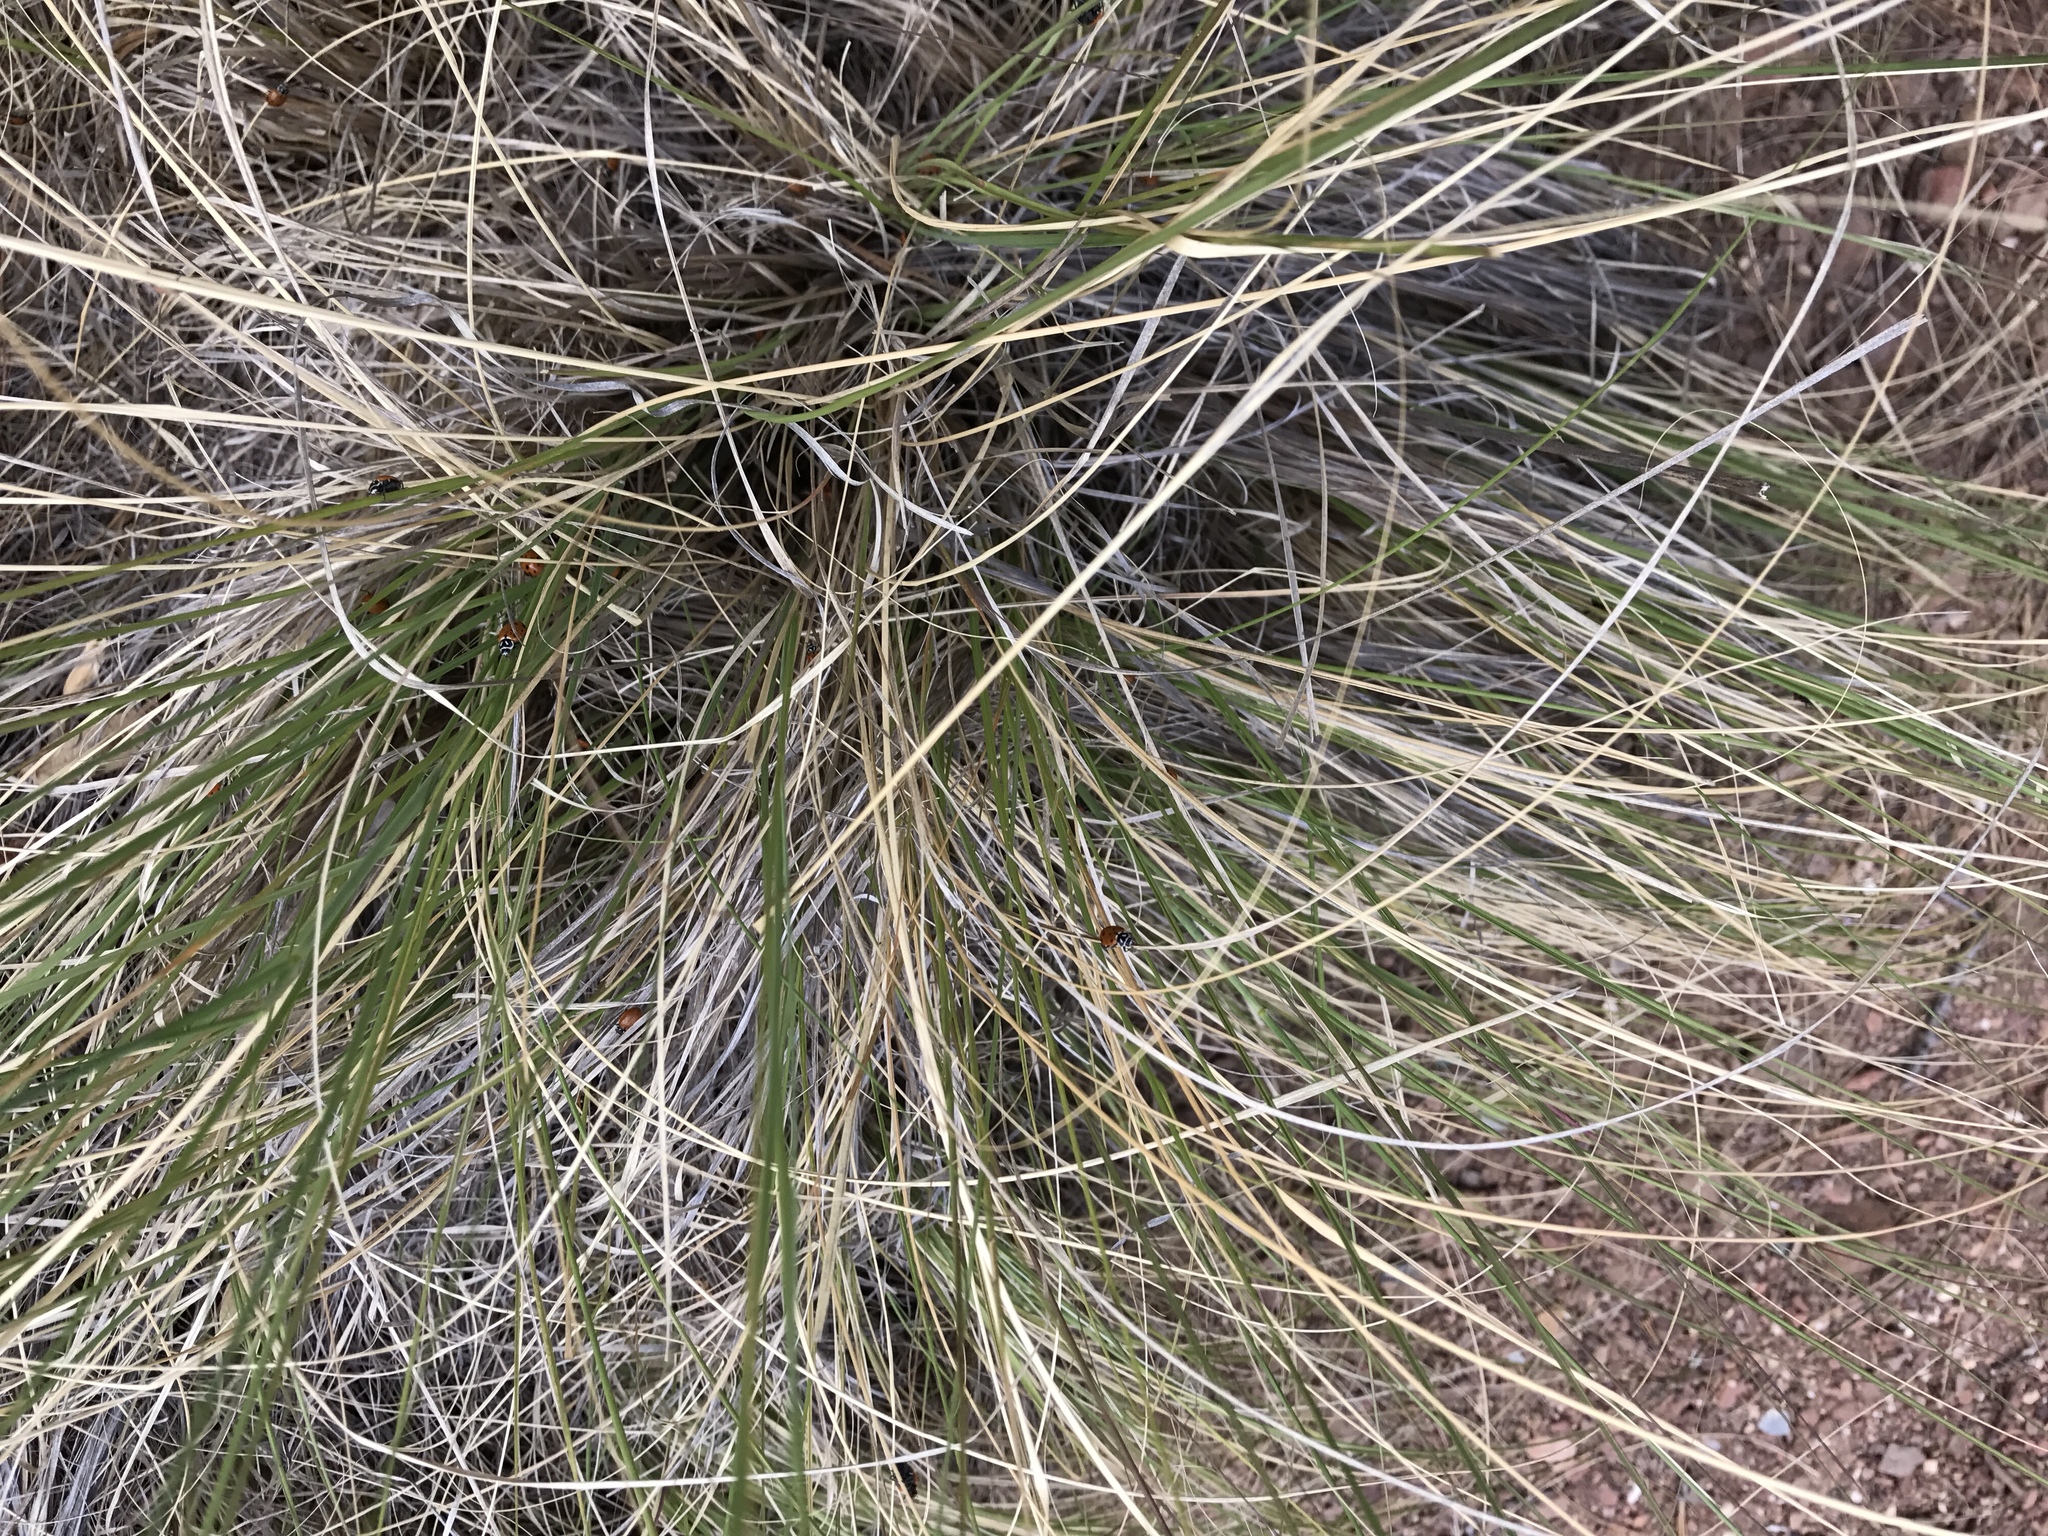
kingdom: Animalia
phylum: Arthropoda
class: Insecta
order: Coleoptera
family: Coccinellidae
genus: Hippodamia
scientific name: Hippodamia convergens
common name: Convergent lady beetle
